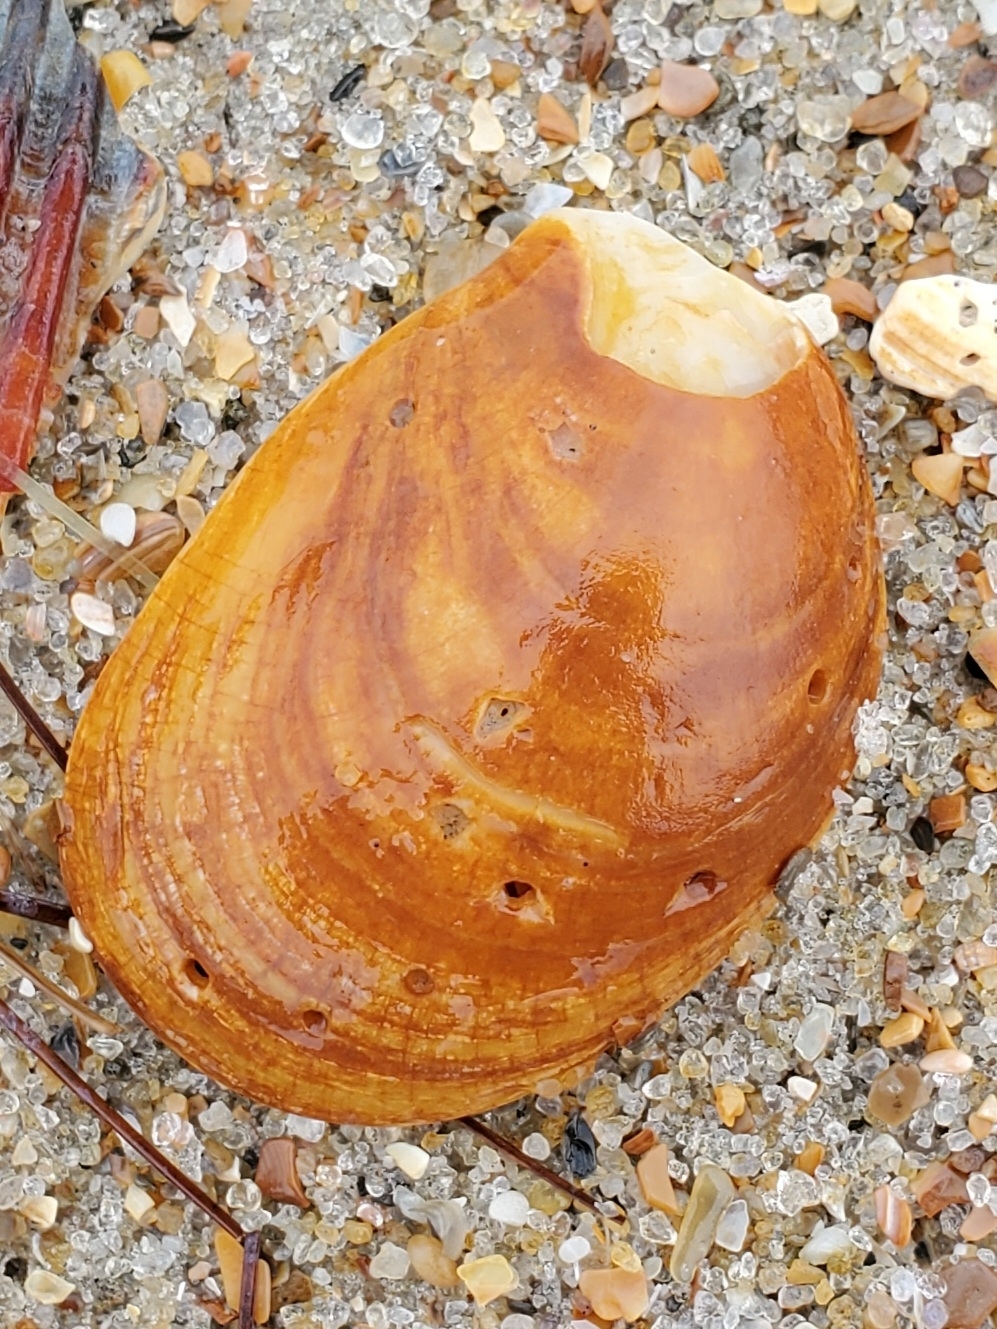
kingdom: Animalia
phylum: Mollusca
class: Gastropoda
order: Littorinimorpha
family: Calyptraeidae
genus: Crepidula
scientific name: Crepidula fornicata
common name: Slipper limpet
